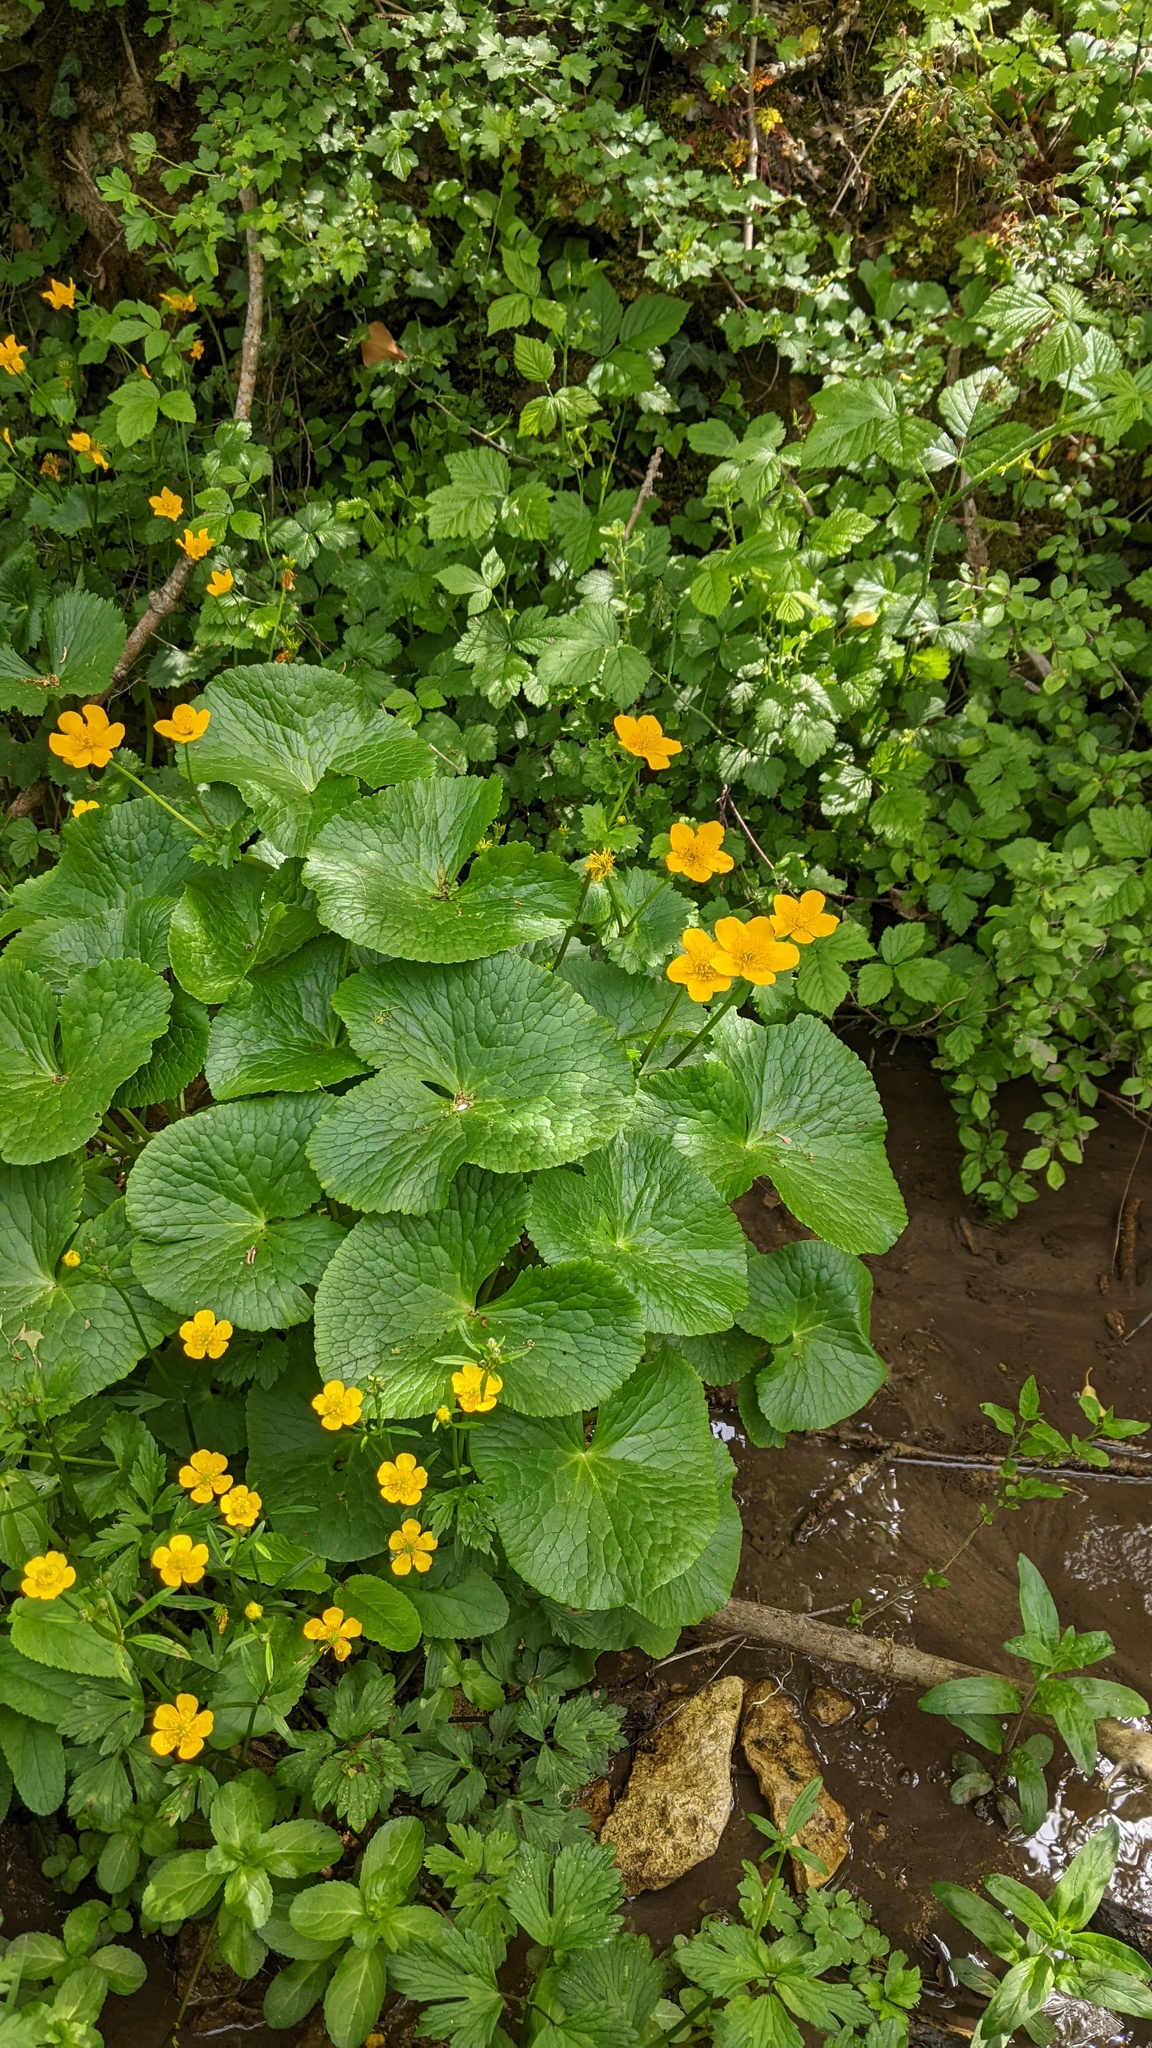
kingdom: Plantae
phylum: Tracheophyta
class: Magnoliopsida
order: Ranunculales
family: Ranunculaceae
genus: Caltha
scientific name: Caltha palustris
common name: Marsh marigold
